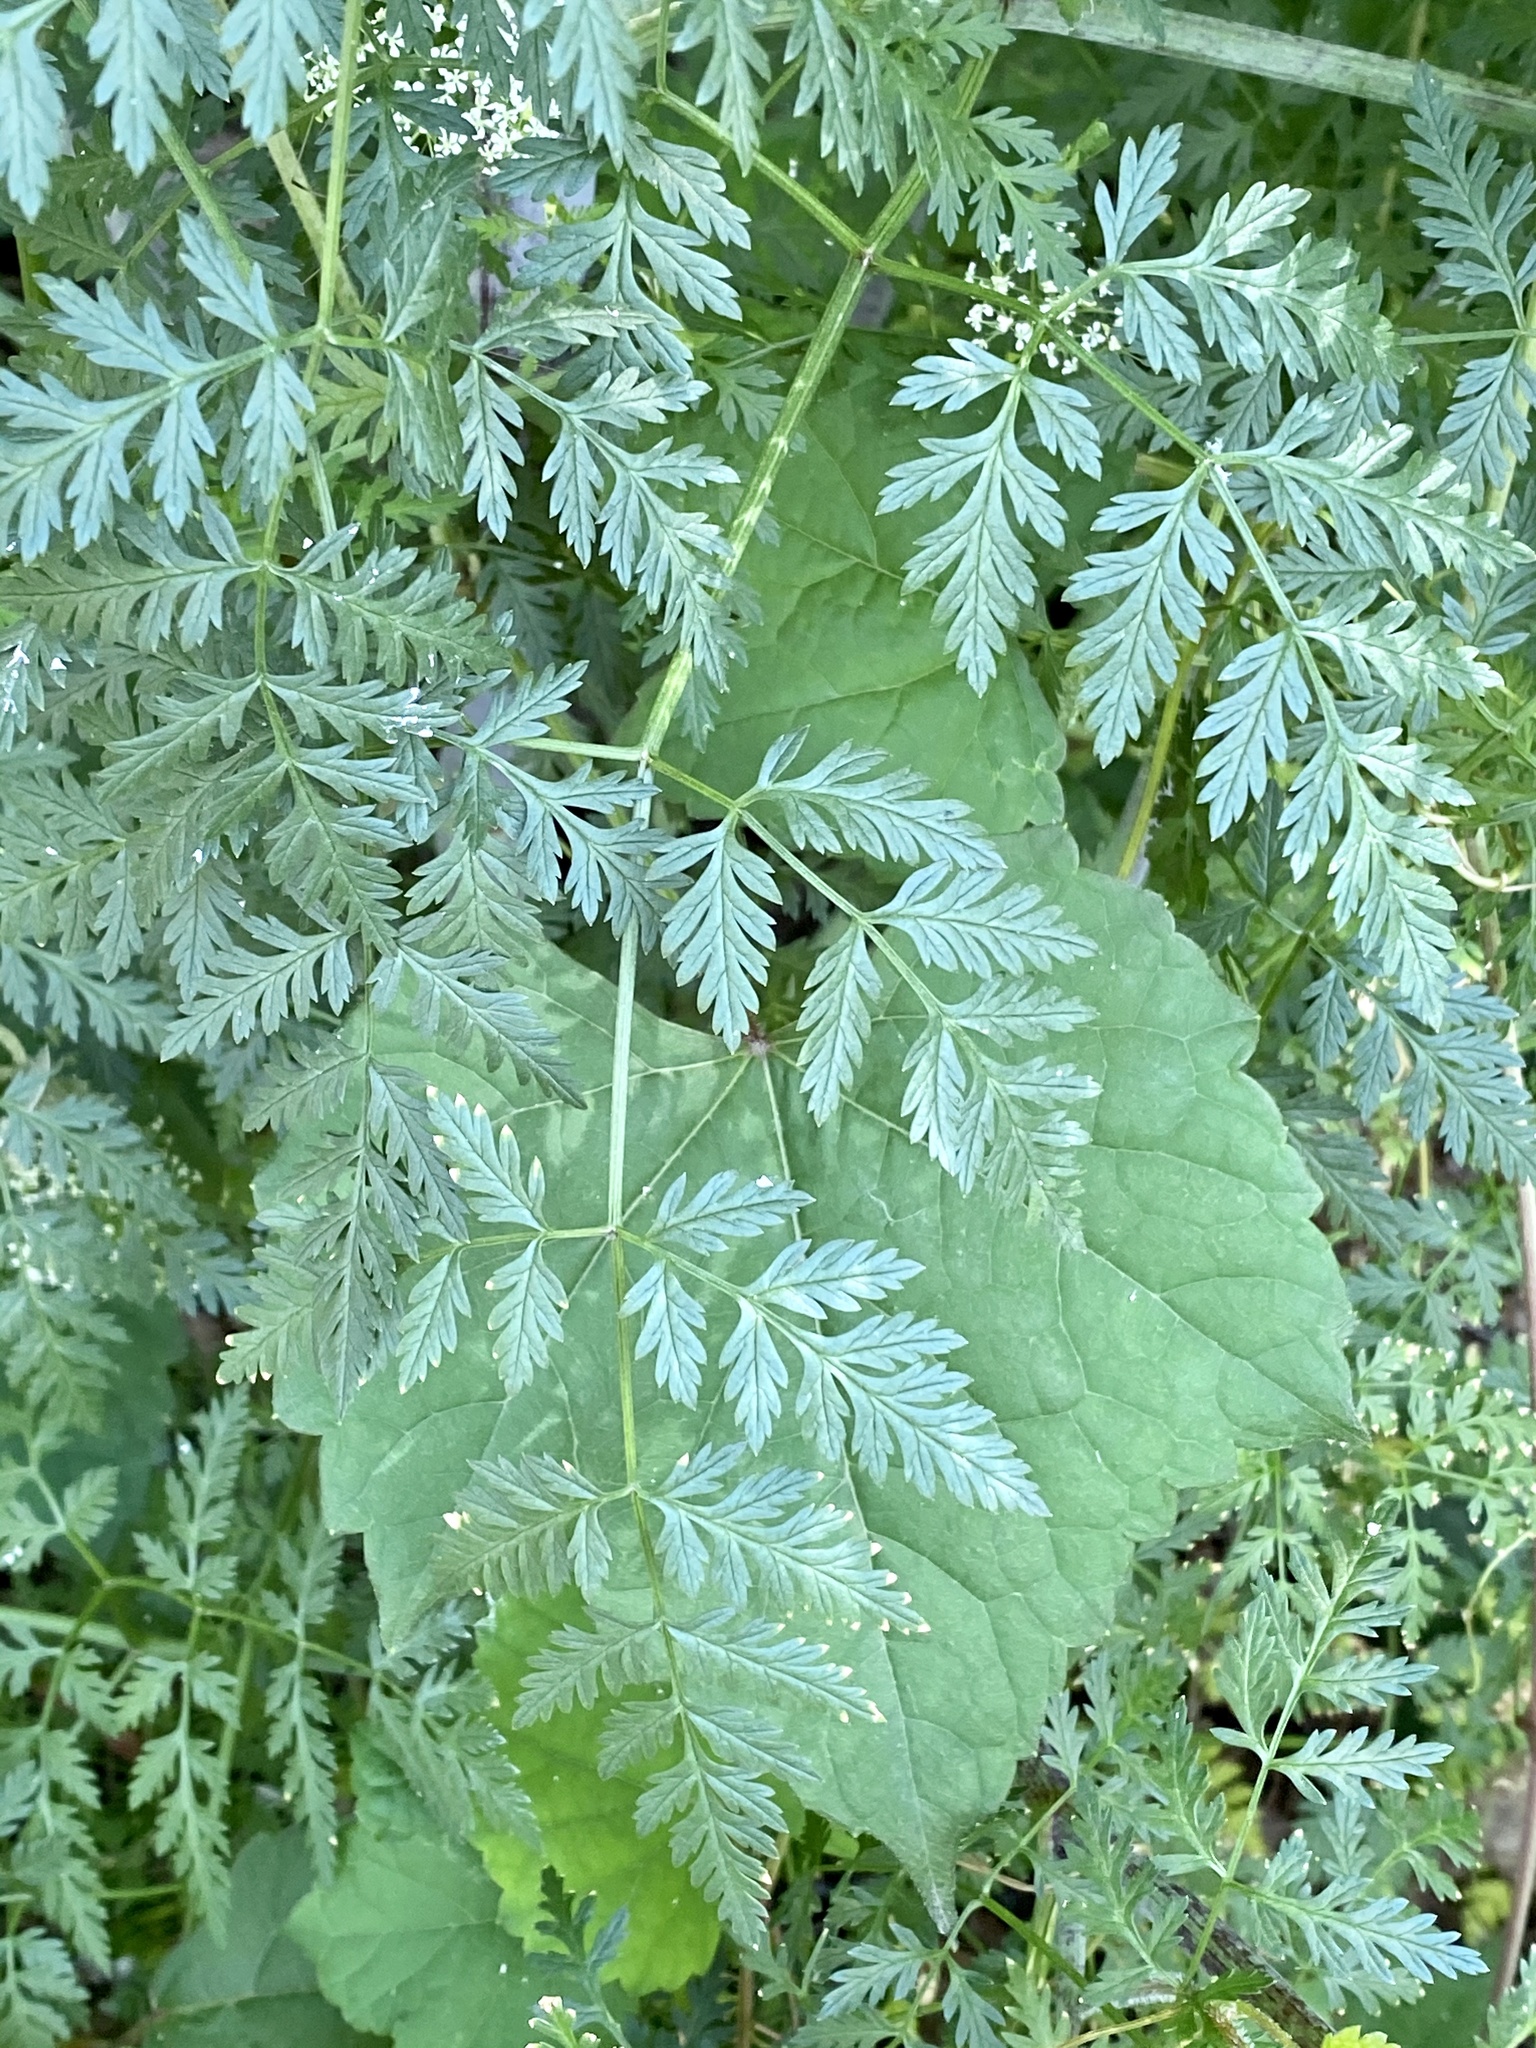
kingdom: Plantae
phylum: Tracheophyta
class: Magnoliopsida
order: Apiales
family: Apiaceae
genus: Conium
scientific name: Conium maculatum
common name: Hemlock
